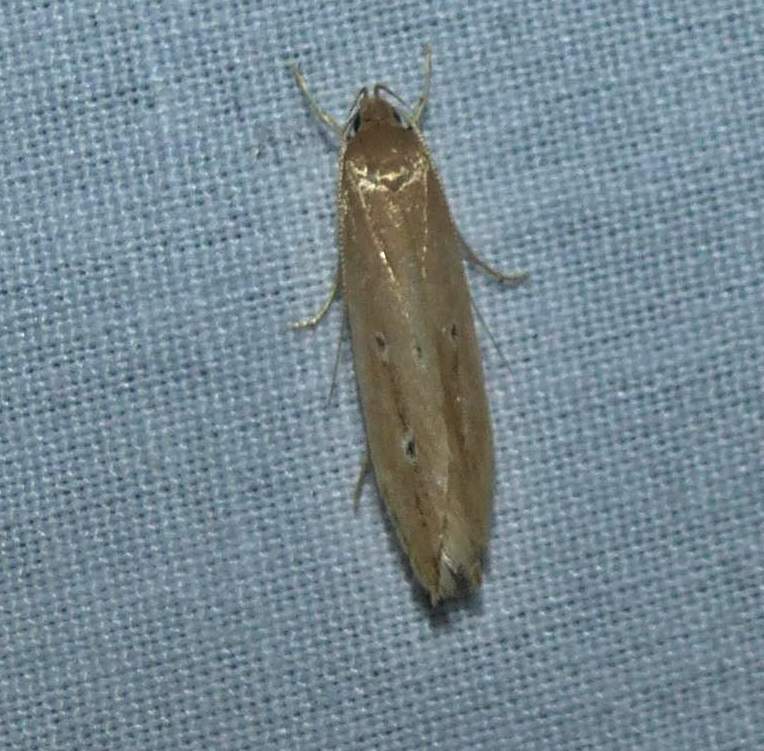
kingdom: Animalia
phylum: Arthropoda
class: Insecta
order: Lepidoptera
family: Cosmopterigidae
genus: Limnaecia
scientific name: Limnaecia phragmitella
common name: Bulrush cosmet
